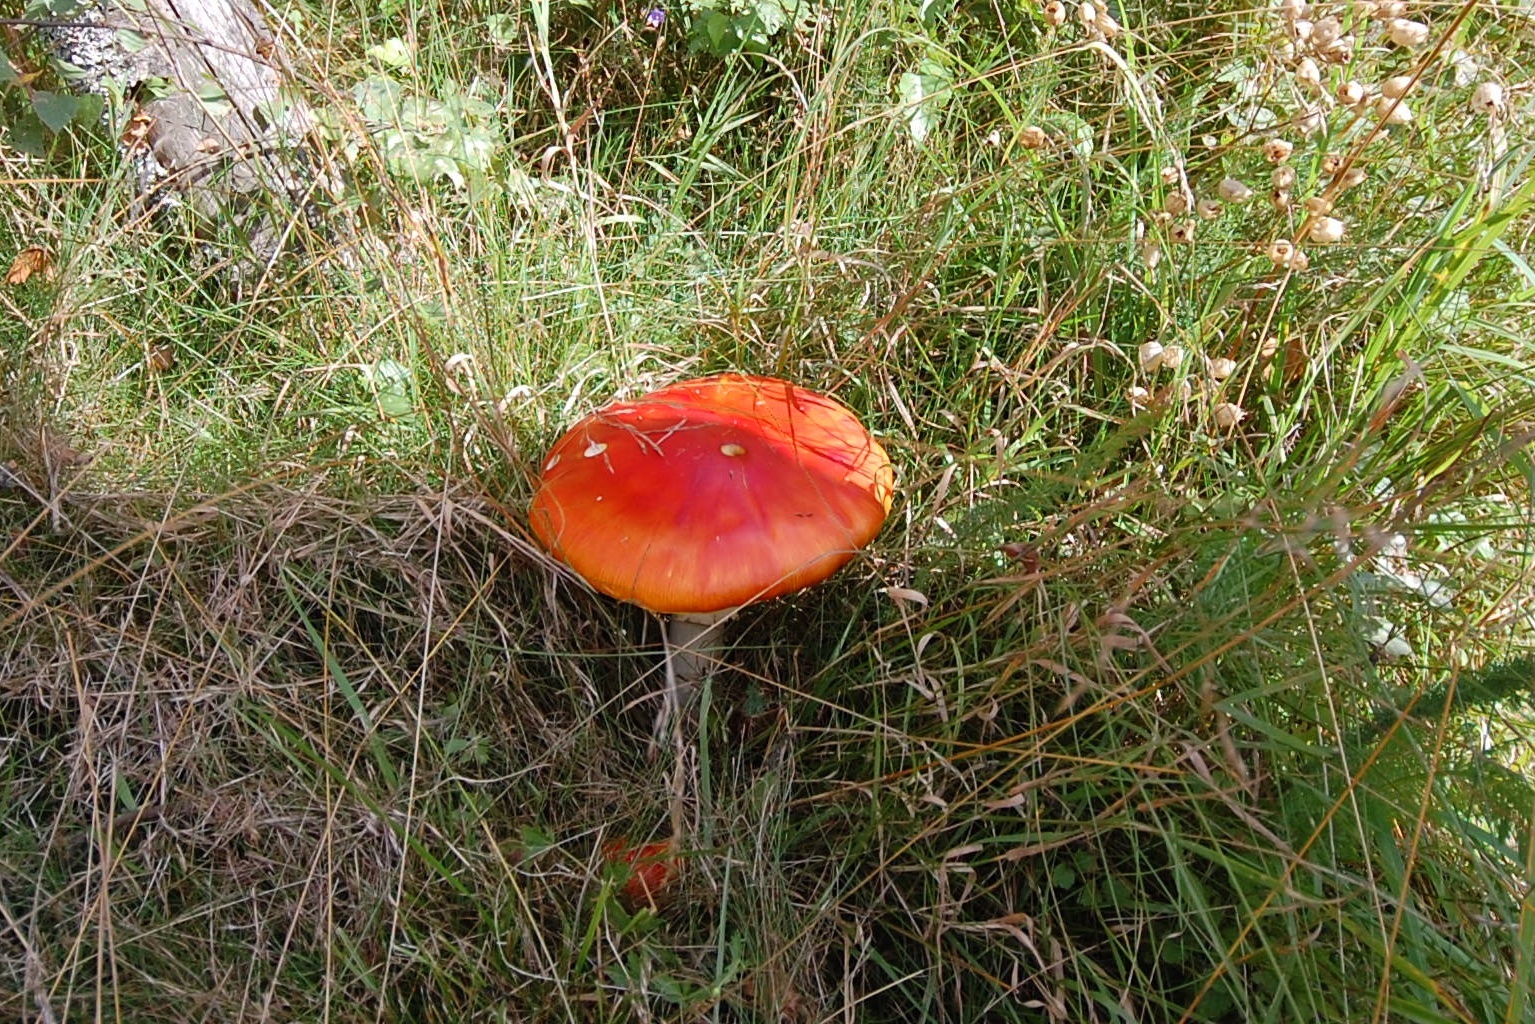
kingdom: Fungi
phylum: Basidiomycota
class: Agaricomycetes
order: Agaricales
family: Amanitaceae
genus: Amanita
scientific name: Amanita muscaria
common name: Fly agaric
